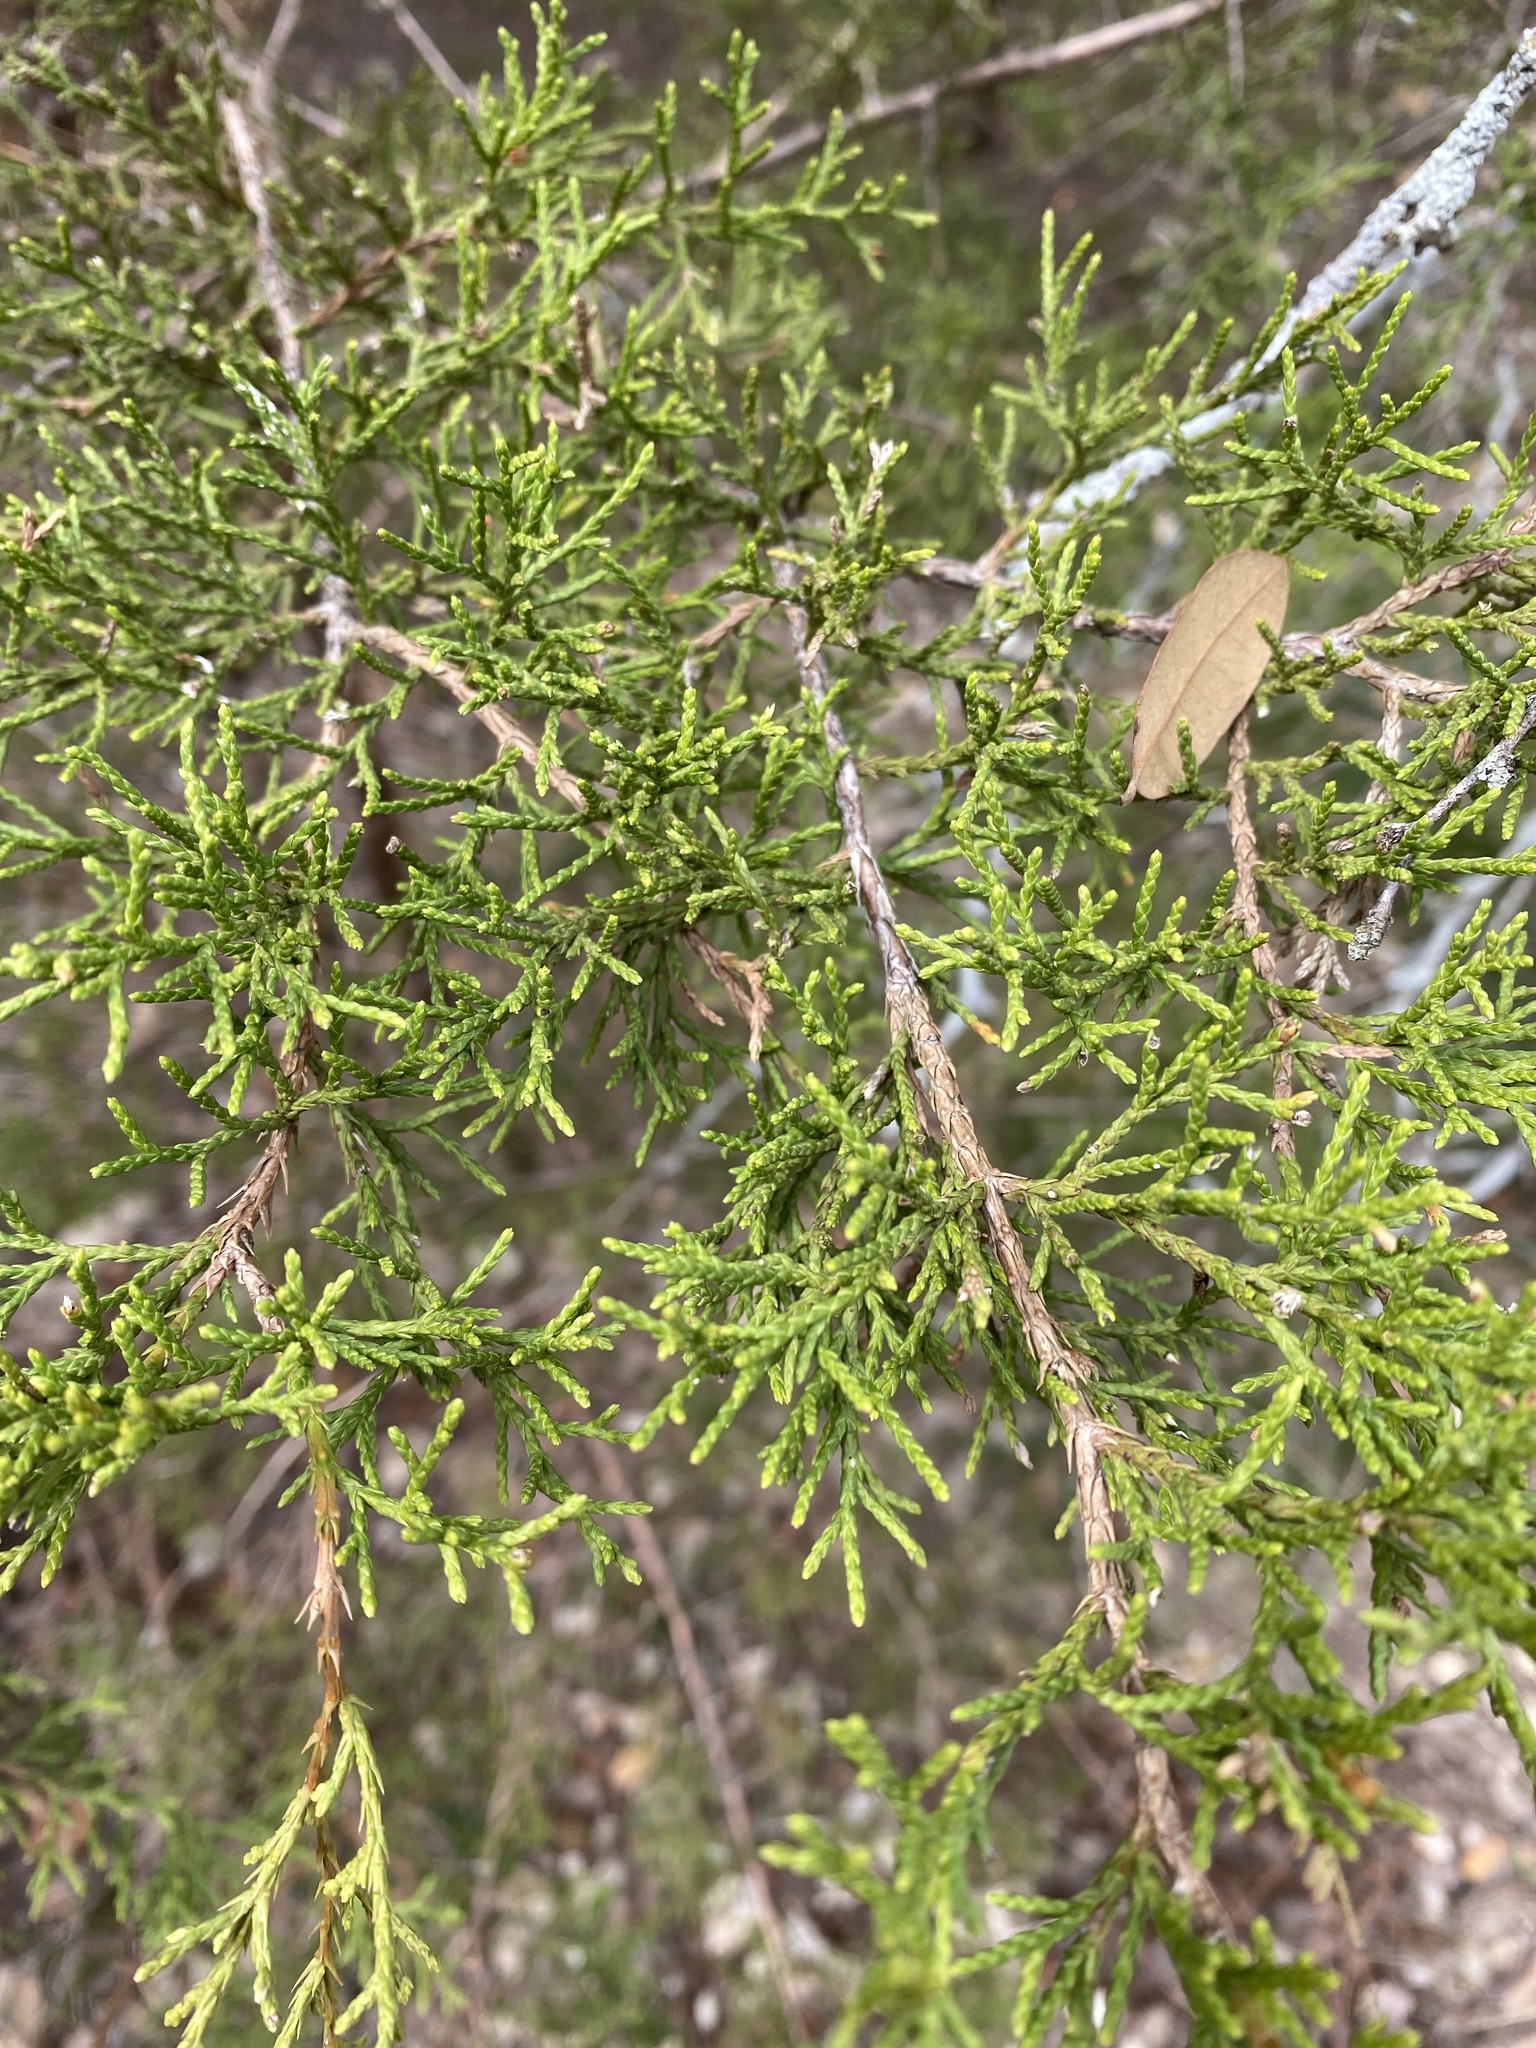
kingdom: Plantae
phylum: Tracheophyta
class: Pinopsida
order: Pinales
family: Cupressaceae
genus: Juniperus
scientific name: Juniperus ashei
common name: Mexican juniper
